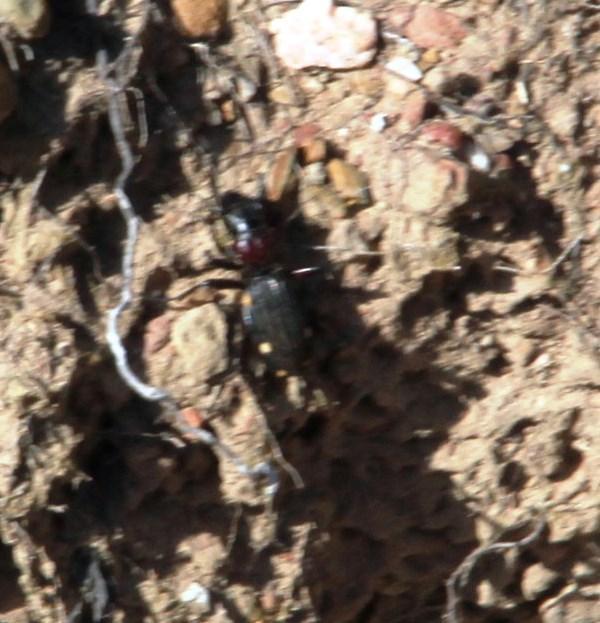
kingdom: Animalia
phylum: Arthropoda
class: Insecta
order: Coleoptera
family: Carabidae
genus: Anthia
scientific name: Anthia decemguttata
